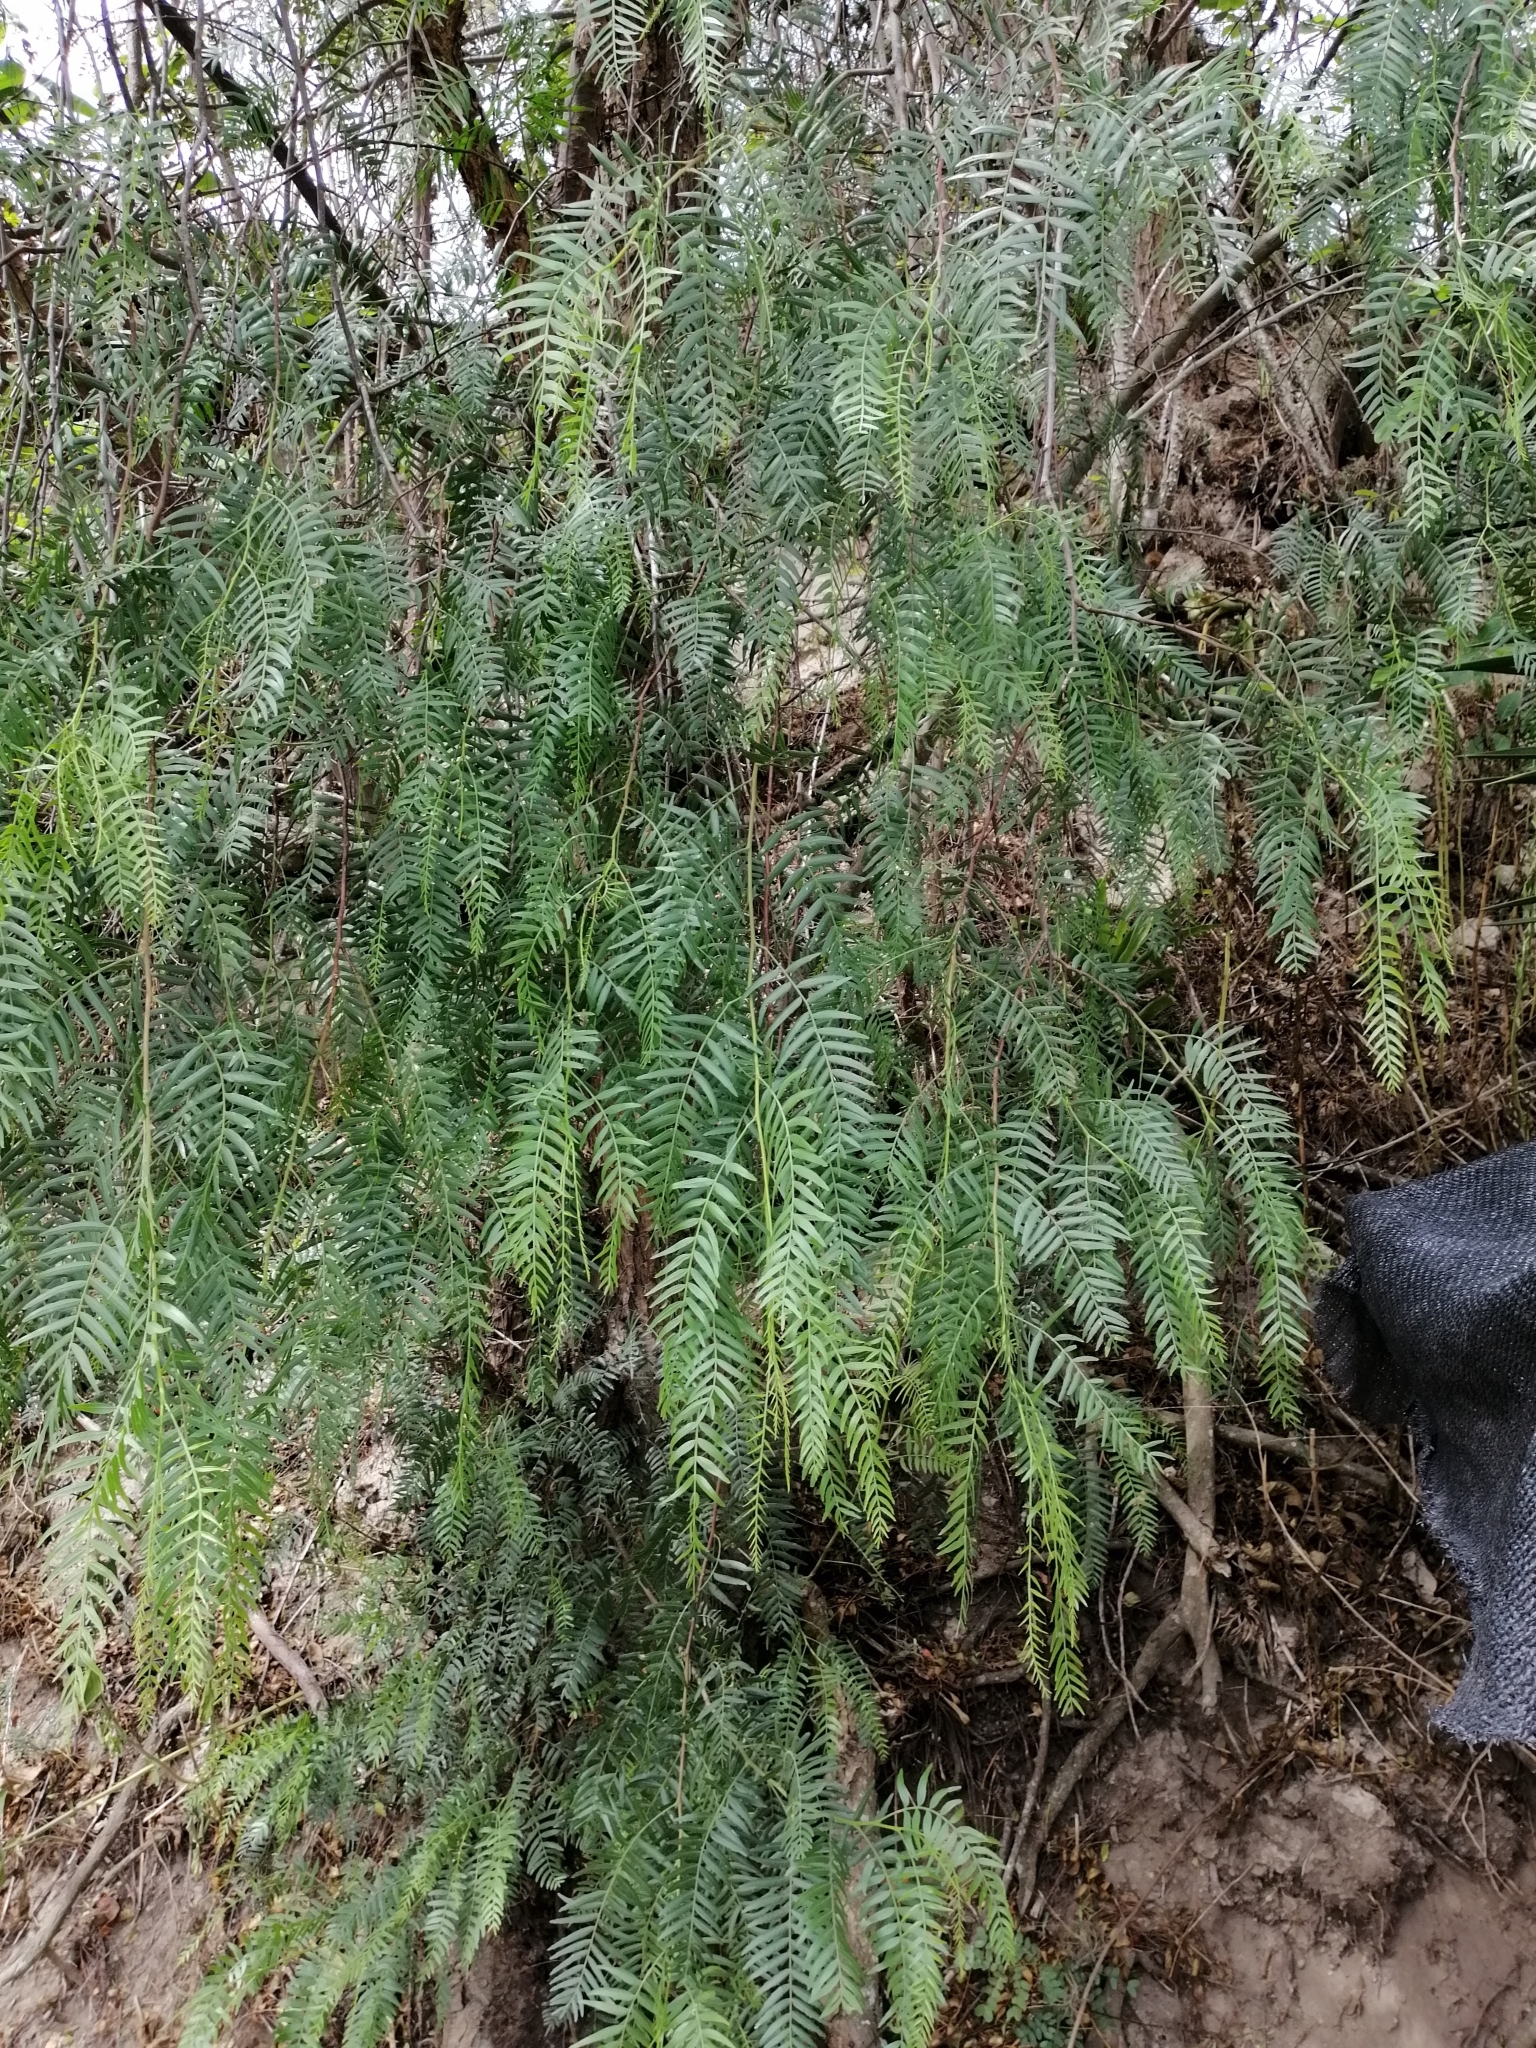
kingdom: Plantae
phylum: Tracheophyta
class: Magnoliopsida
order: Sapindales
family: Anacardiaceae
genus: Schinus
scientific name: Schinus molle
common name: Peruvian peppertree
